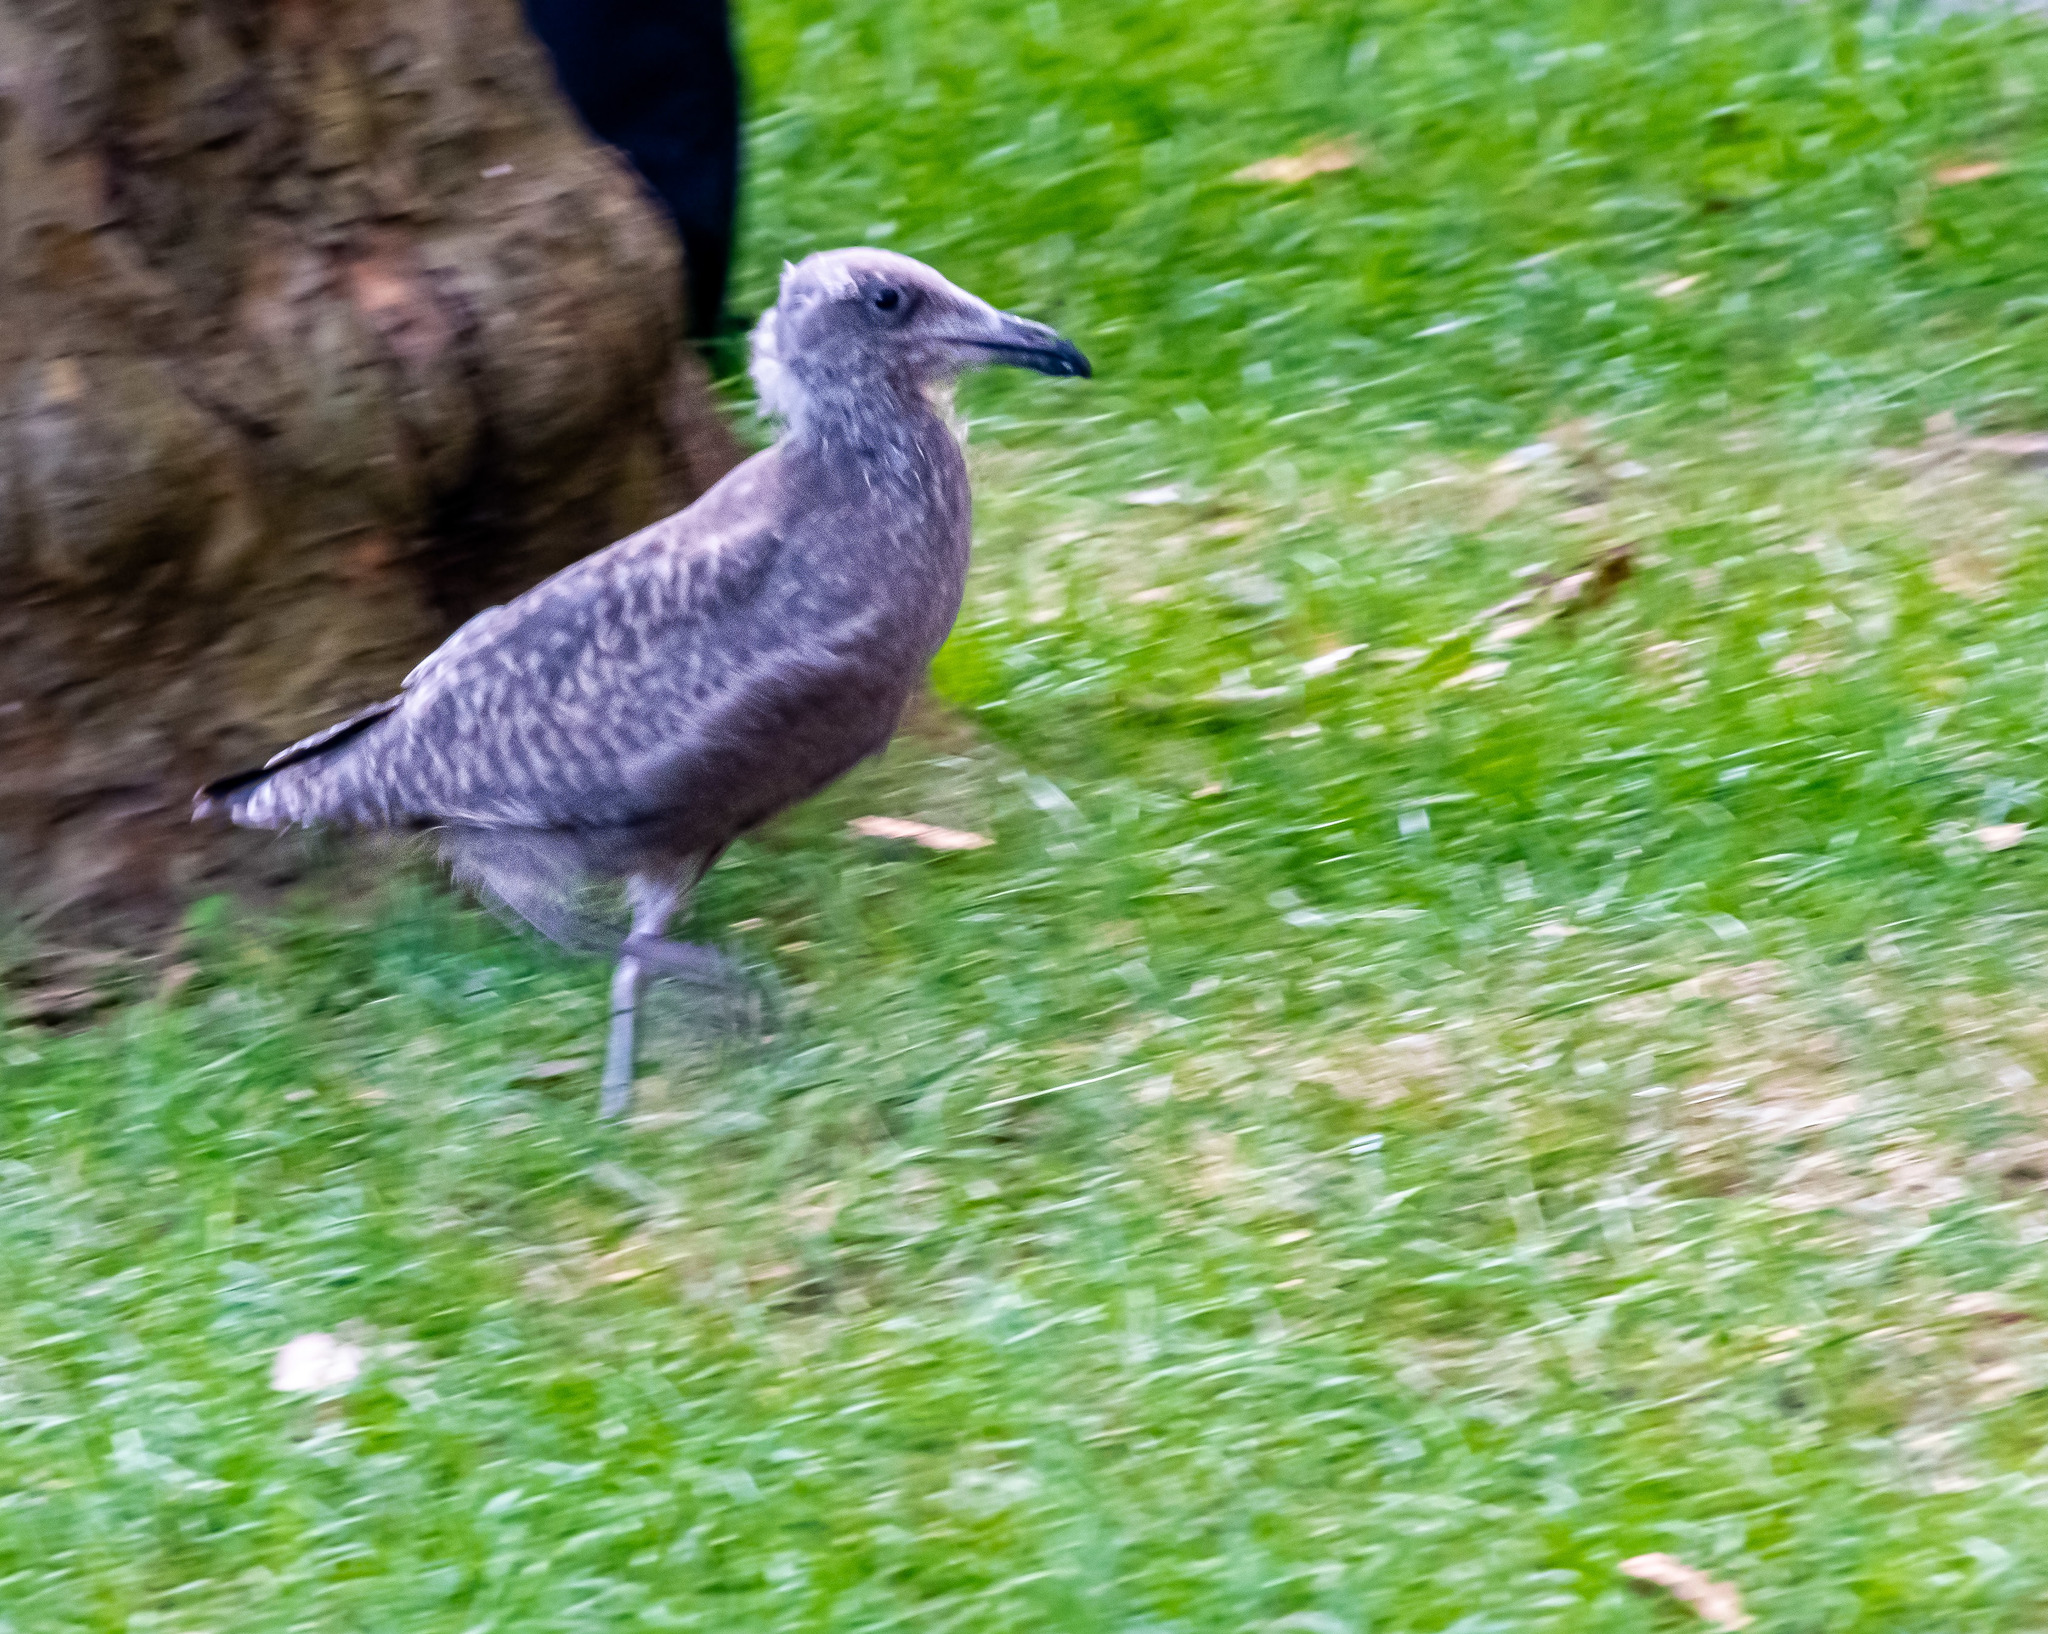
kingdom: Animalia
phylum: Chordata
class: Aves
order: Charadriiformes
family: Laridae
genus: Larus
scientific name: Larus argentatus
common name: Herring gull
